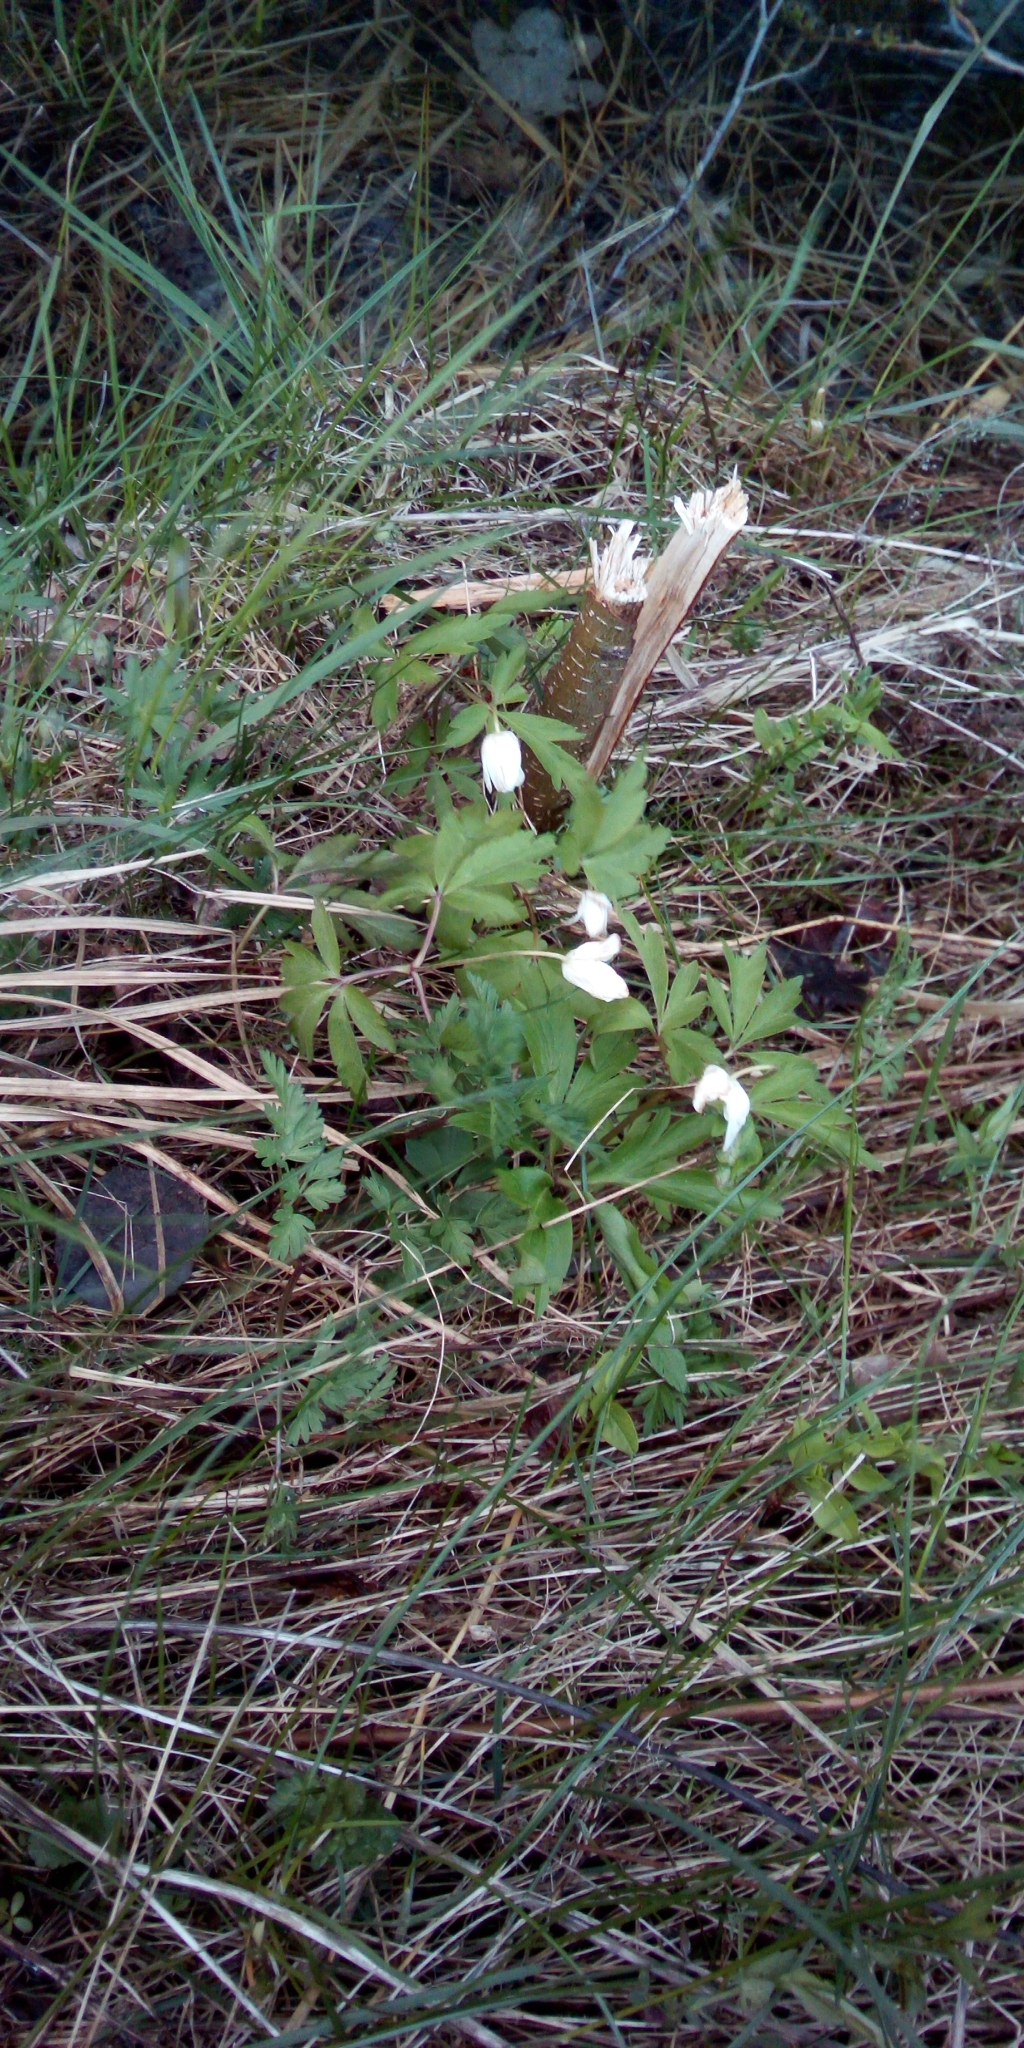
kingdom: Plantae
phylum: Tracheophyta
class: Magnoliopsida
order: Ranunculales
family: Ranunculaceae
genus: Anemone
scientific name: Anemone nemorosa
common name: Wood anemone
